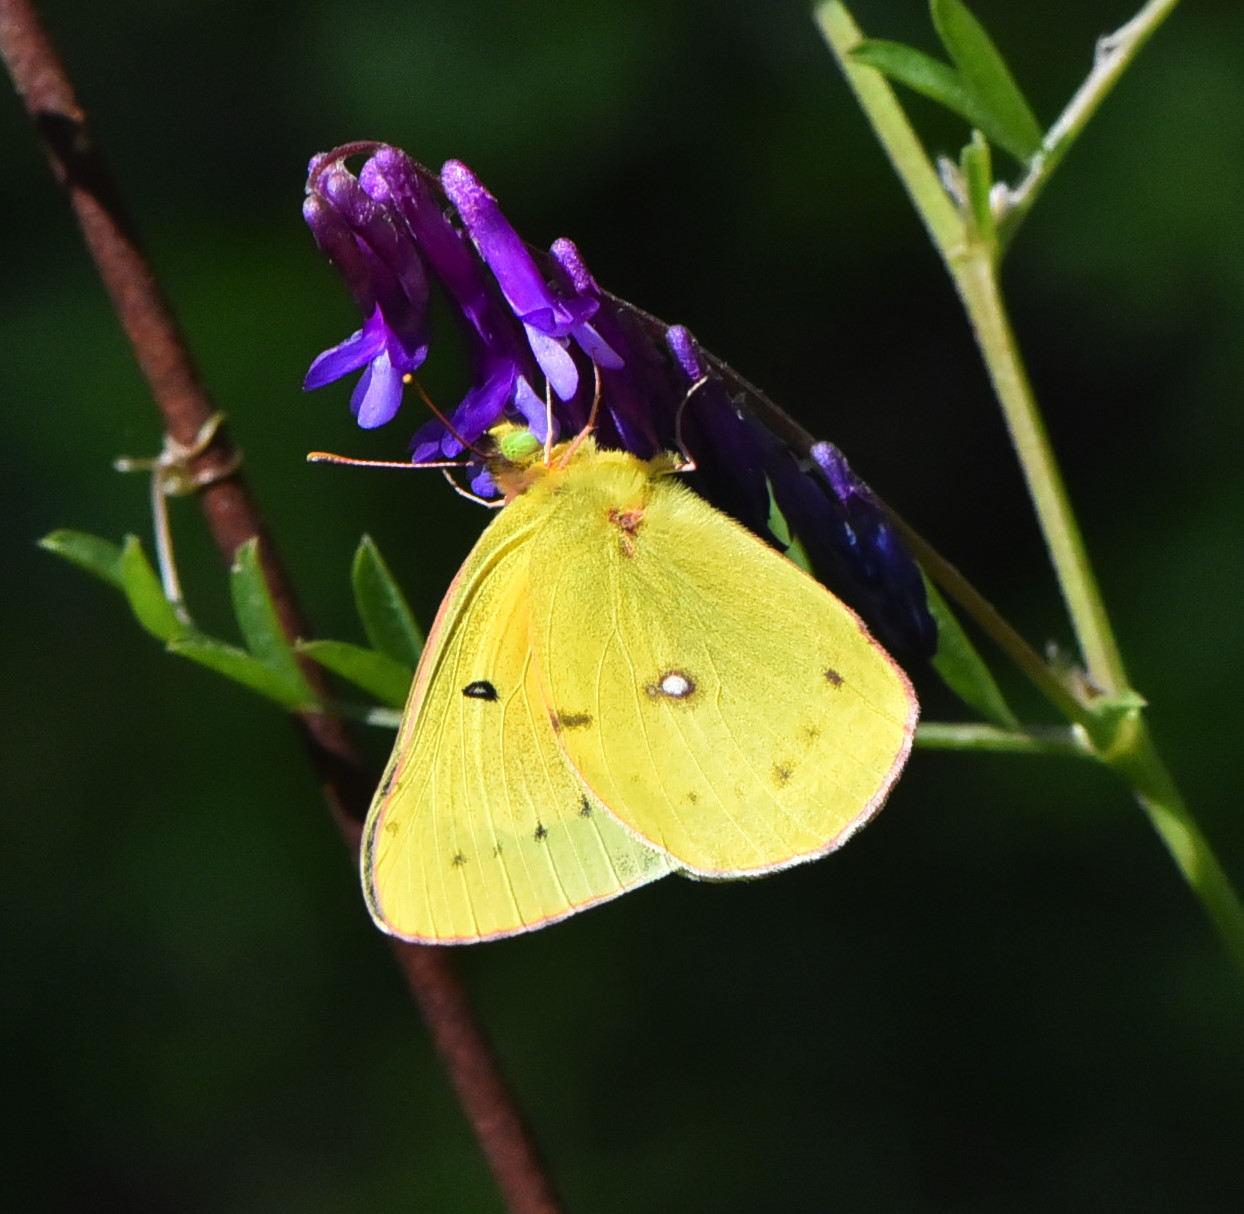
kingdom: Animalia
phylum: Arthropoda
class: Insecta
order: Lepidoptera
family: Pieridae
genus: Colias
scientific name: Colias eurytheme
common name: Alfalfa butterfly
